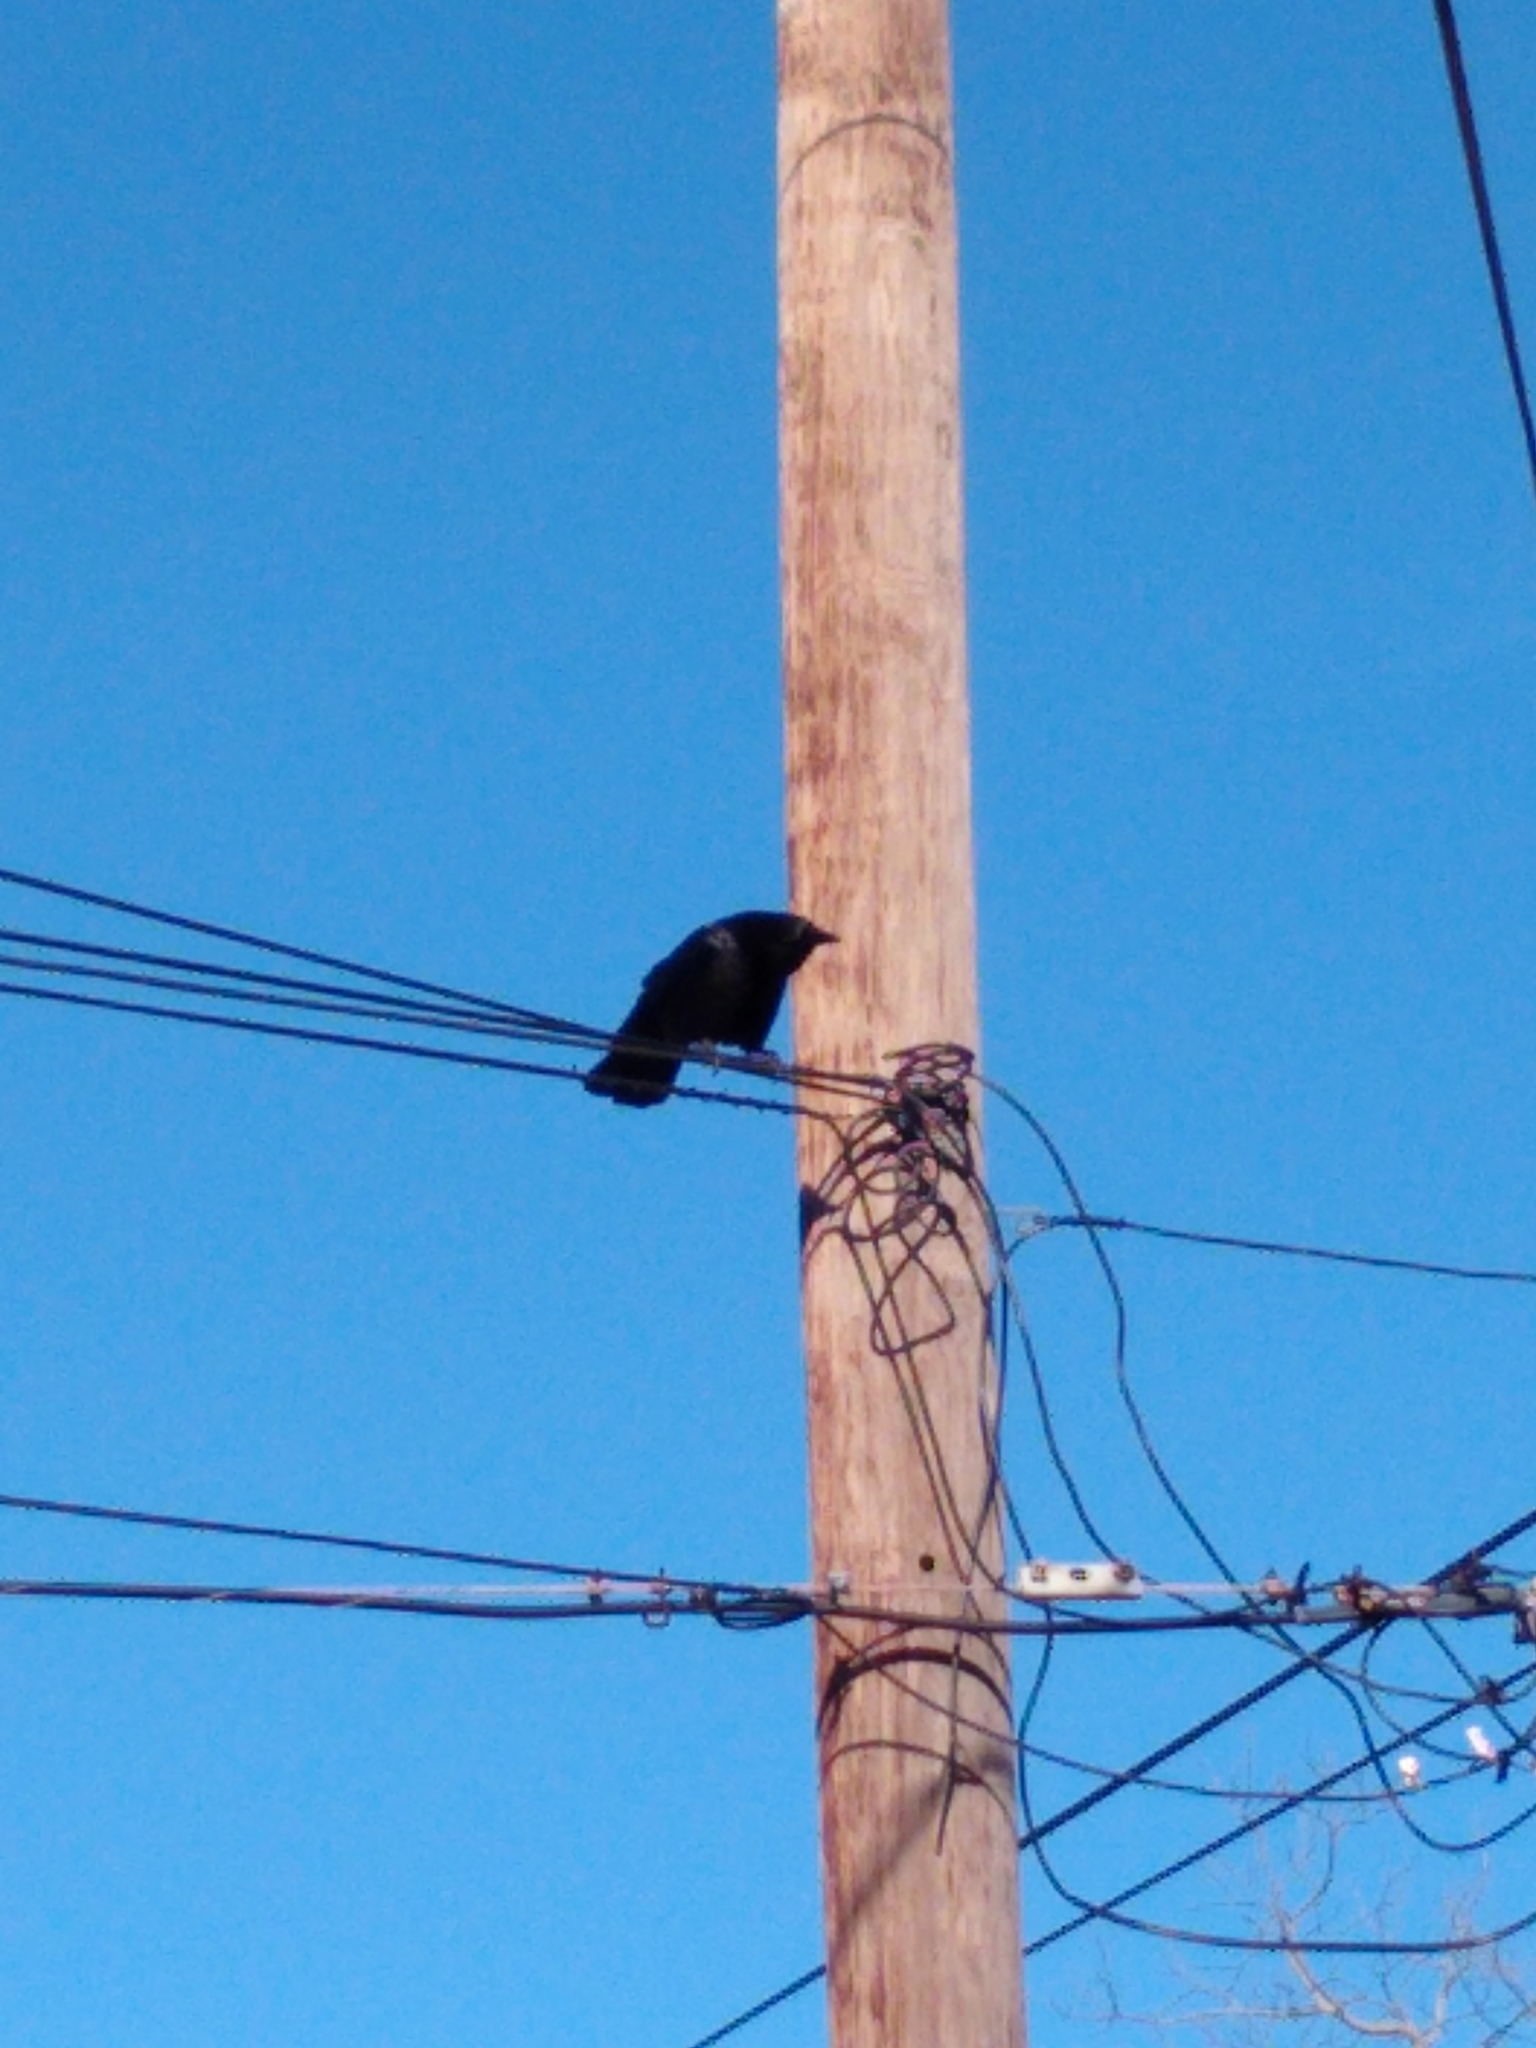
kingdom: Animalia
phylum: Chordata
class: Aves
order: Passeriformes
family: Corvidae
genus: Corvus
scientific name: Corvus brachyrhynchos
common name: American crow
